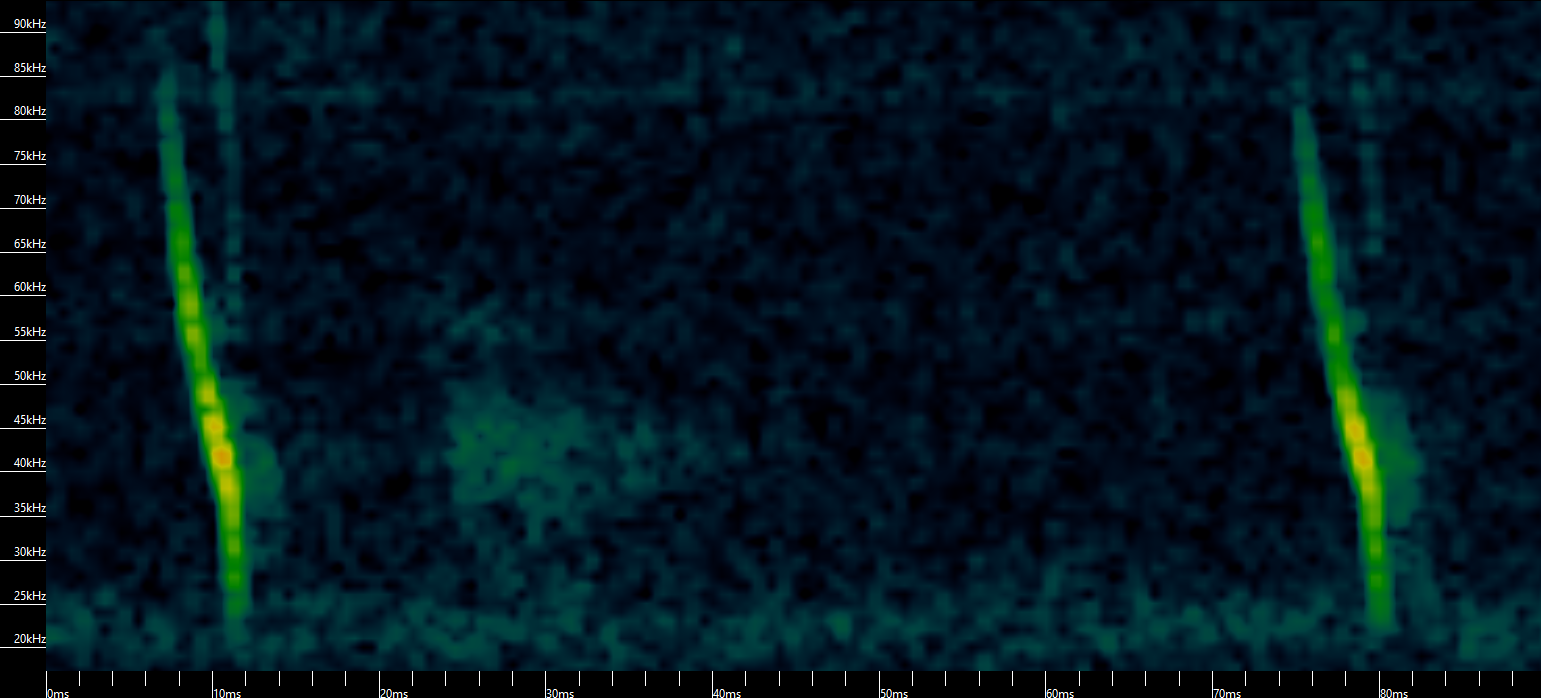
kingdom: Animalia
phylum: Chordata
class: Mammalia
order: Chiroptera
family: Vespertilionidae
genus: Myotis
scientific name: Myotis daubentonii
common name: Daubenton's myotis
